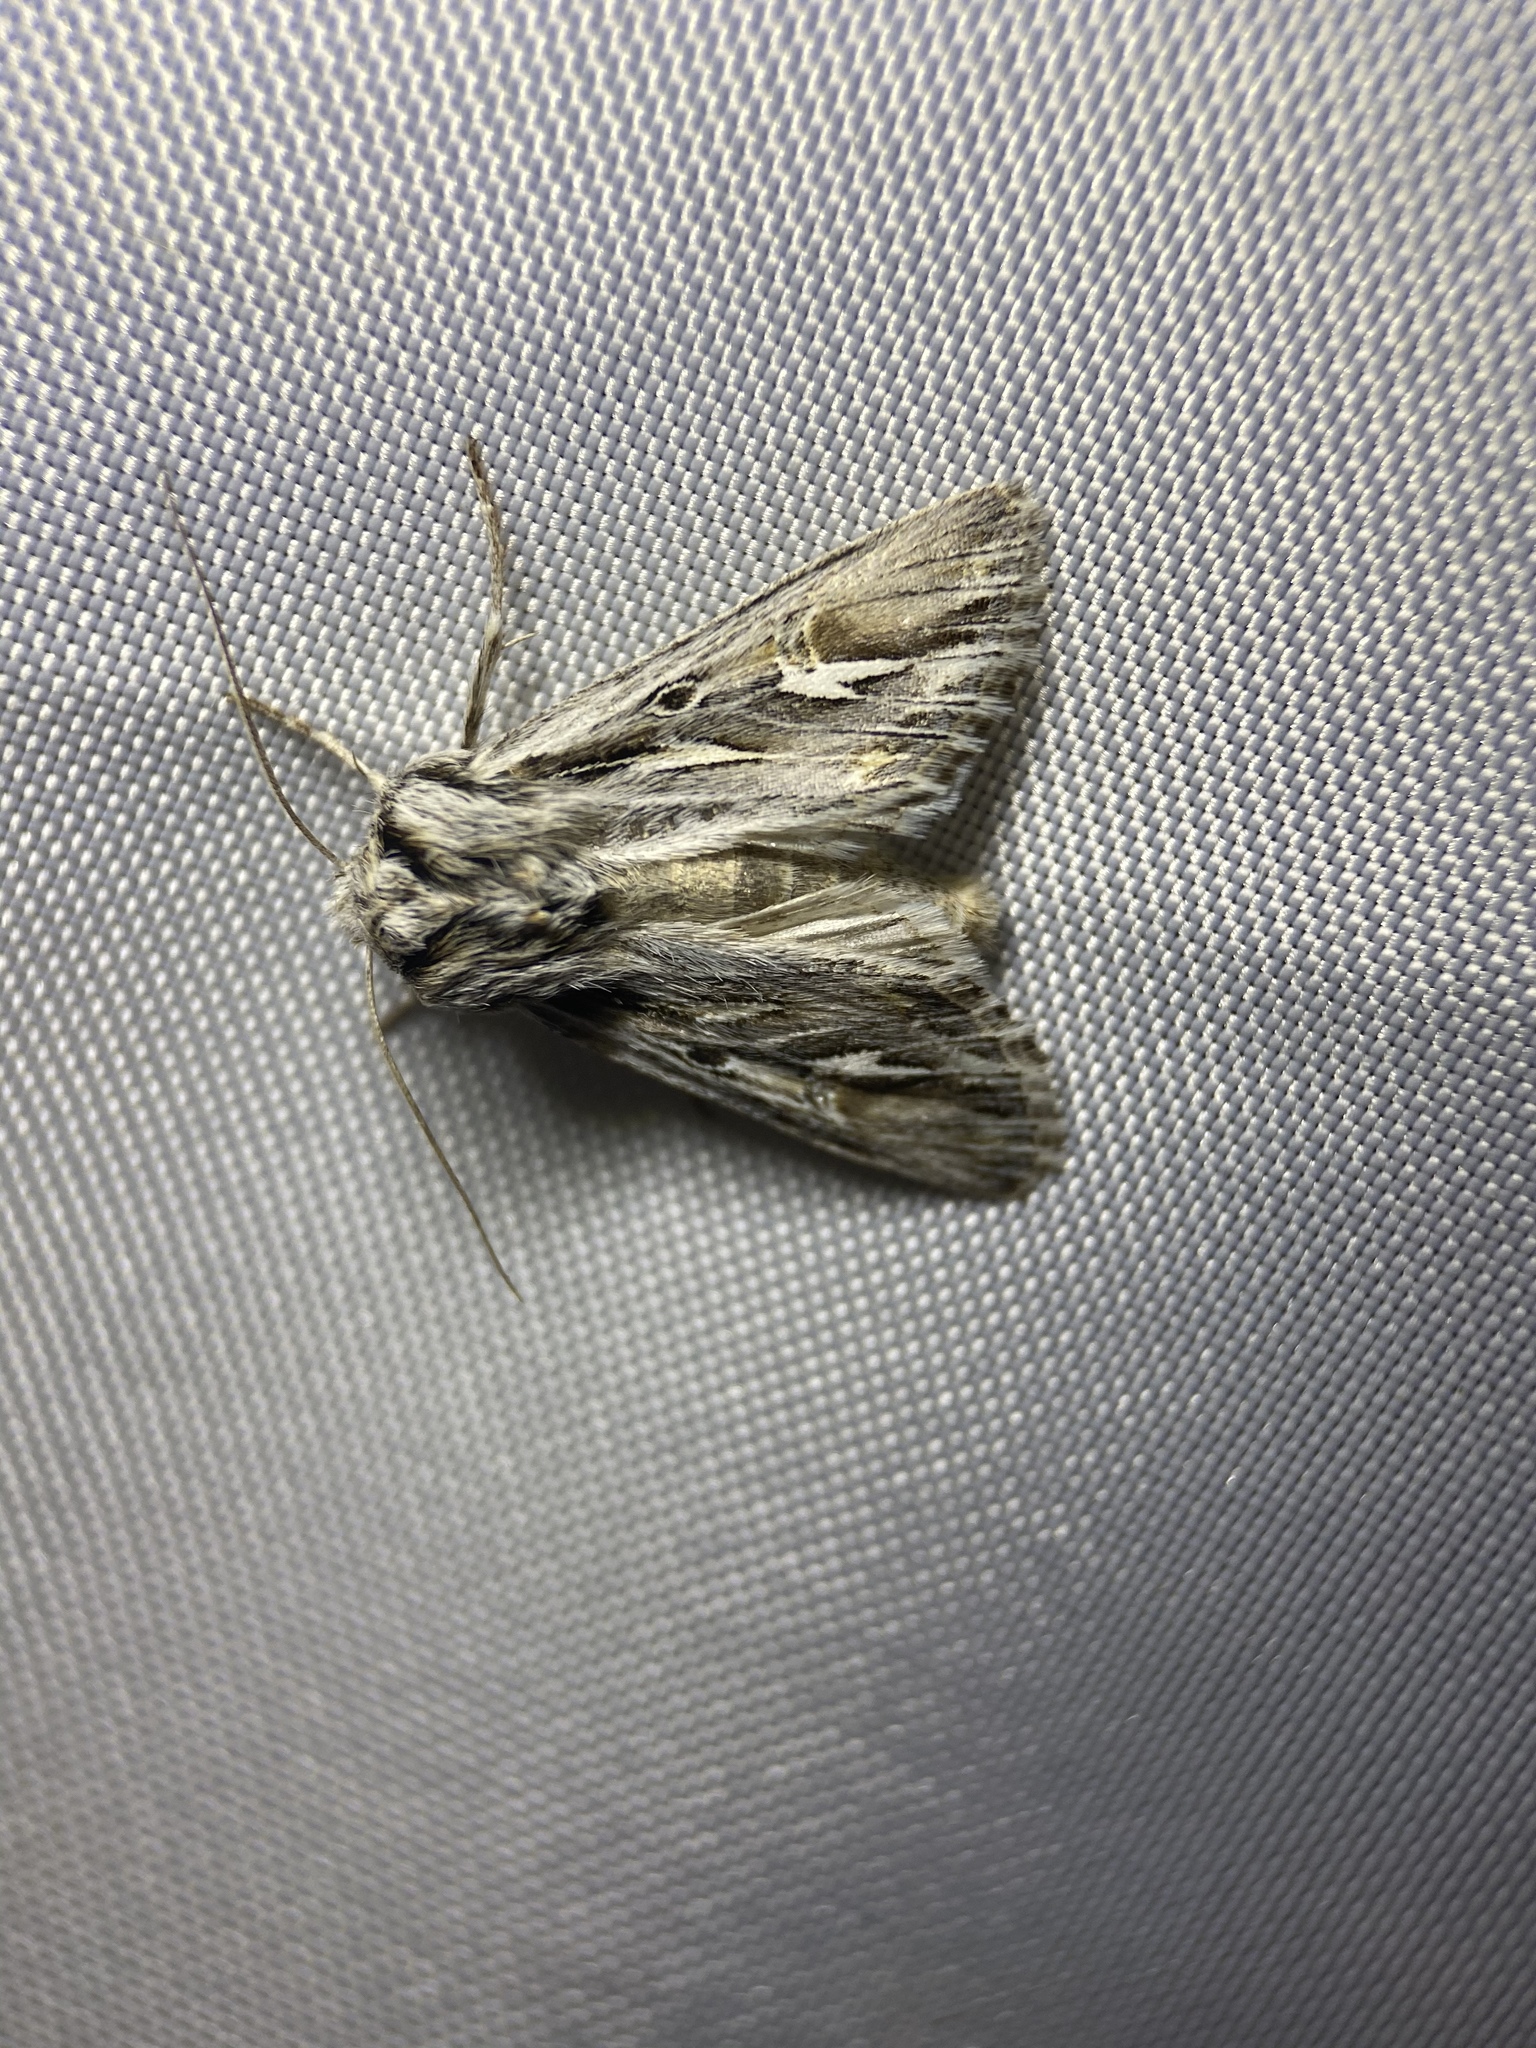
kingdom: Animalia
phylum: Arthropoda
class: Insecta
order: Lepidoptera
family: Noctuidae
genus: Provia
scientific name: Provia argentata
